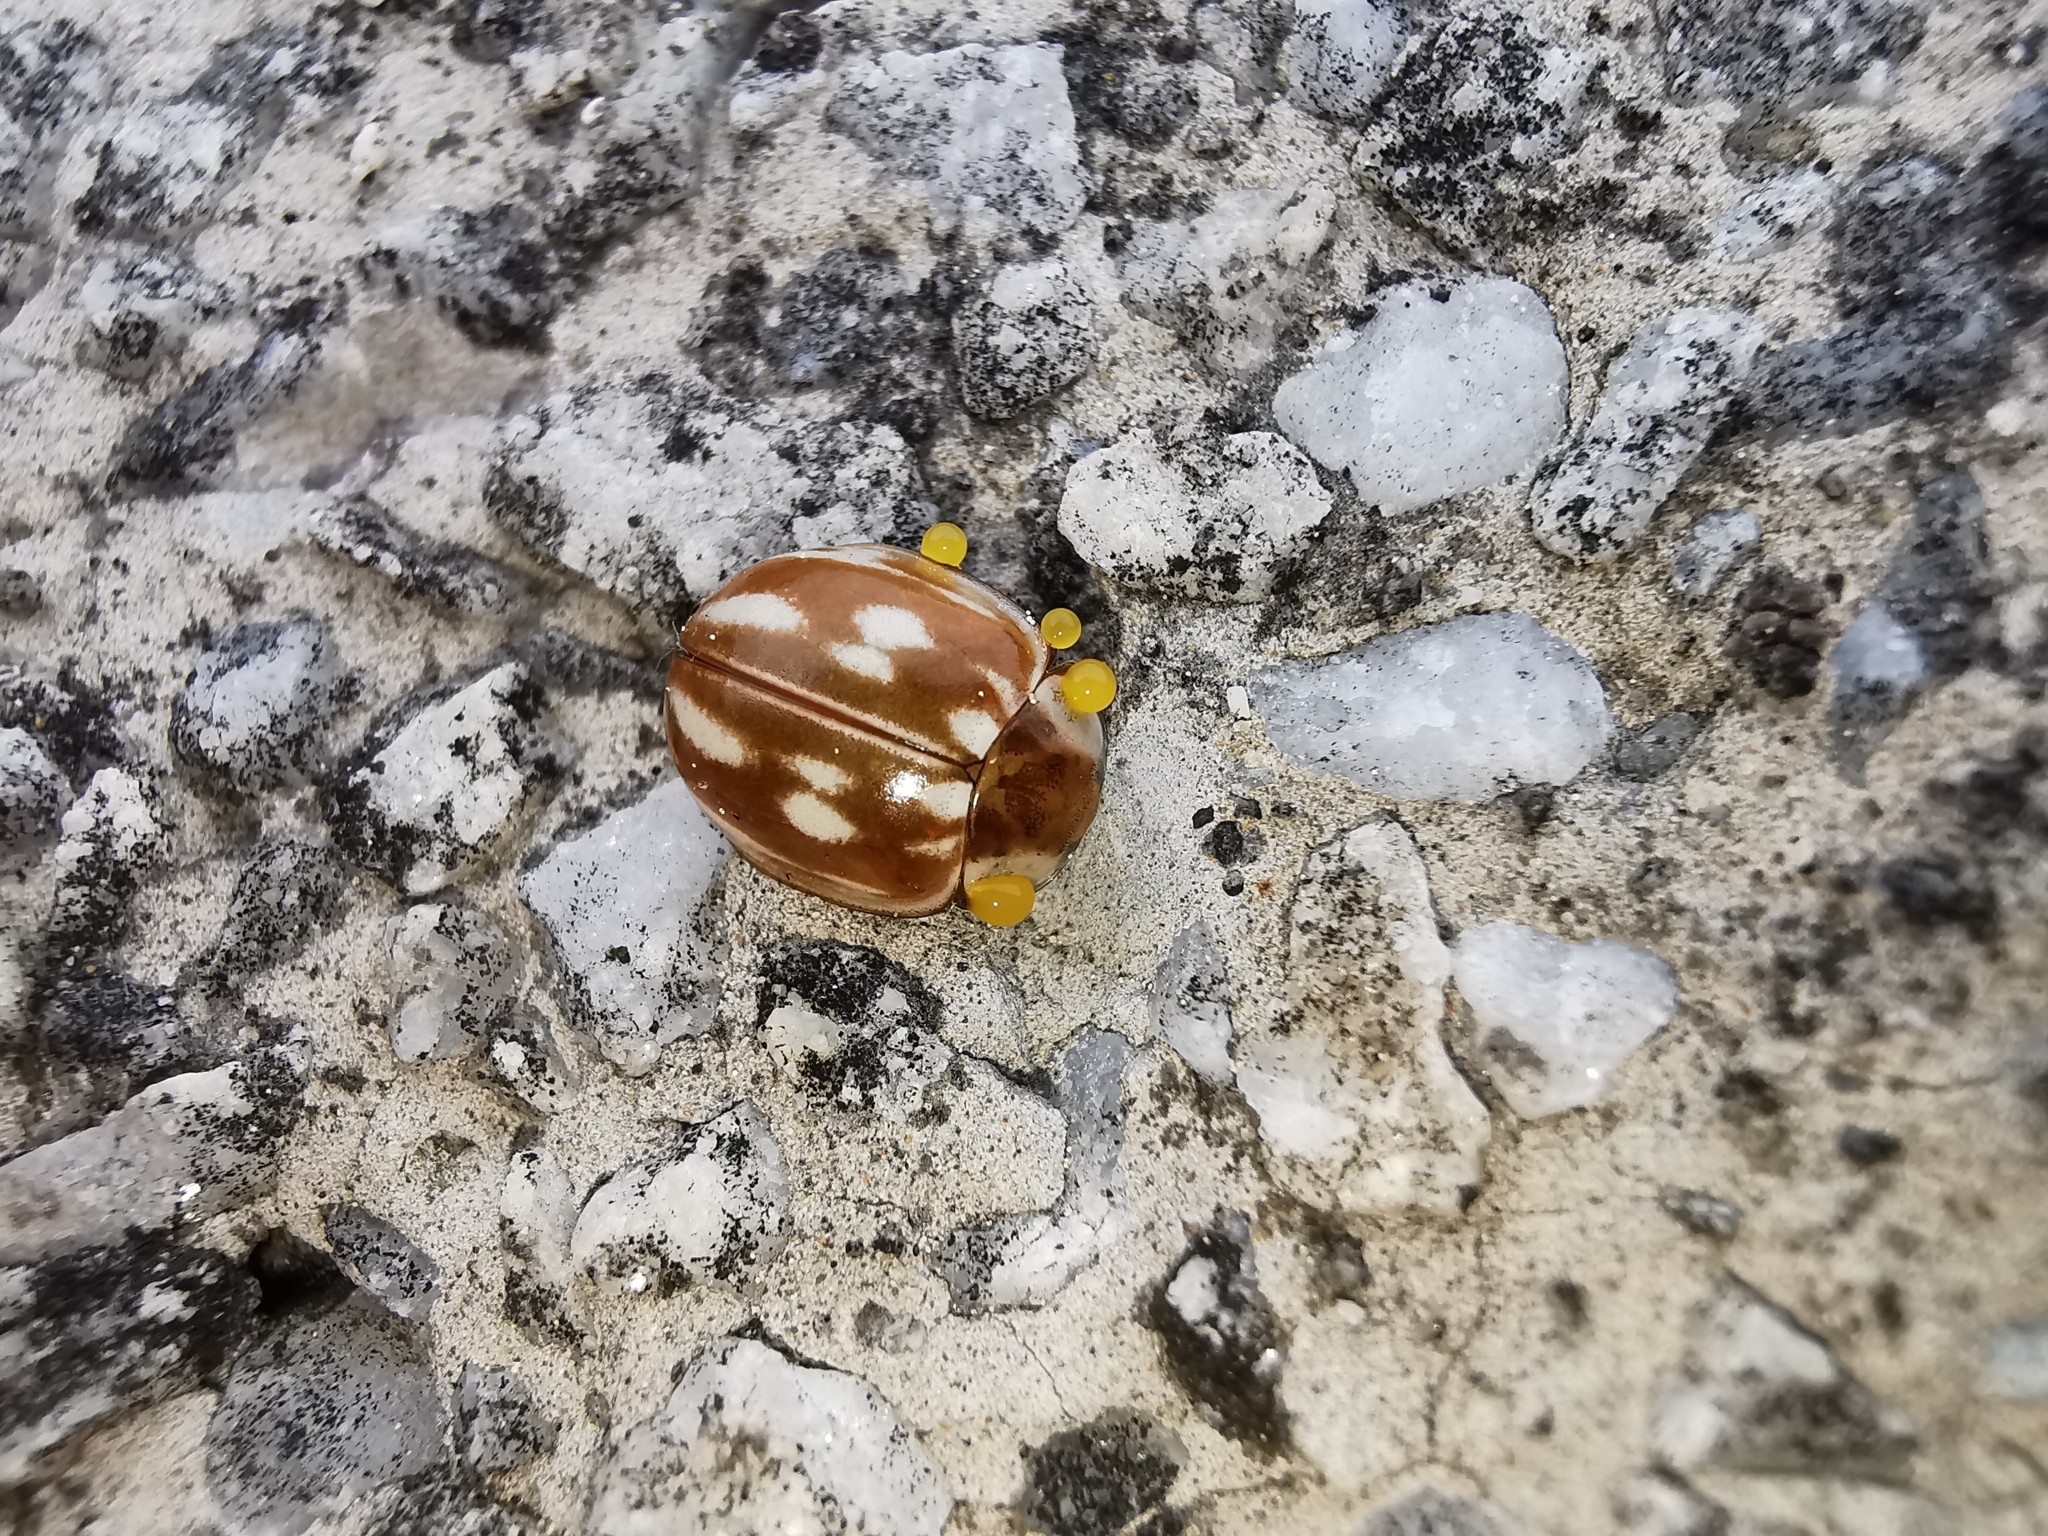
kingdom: Animalia
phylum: Arthropoda
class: Insecta
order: Coleoptera
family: Coccinellidae
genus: Myzia
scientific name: Myzia oblongoguttata
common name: Striped ladybird
